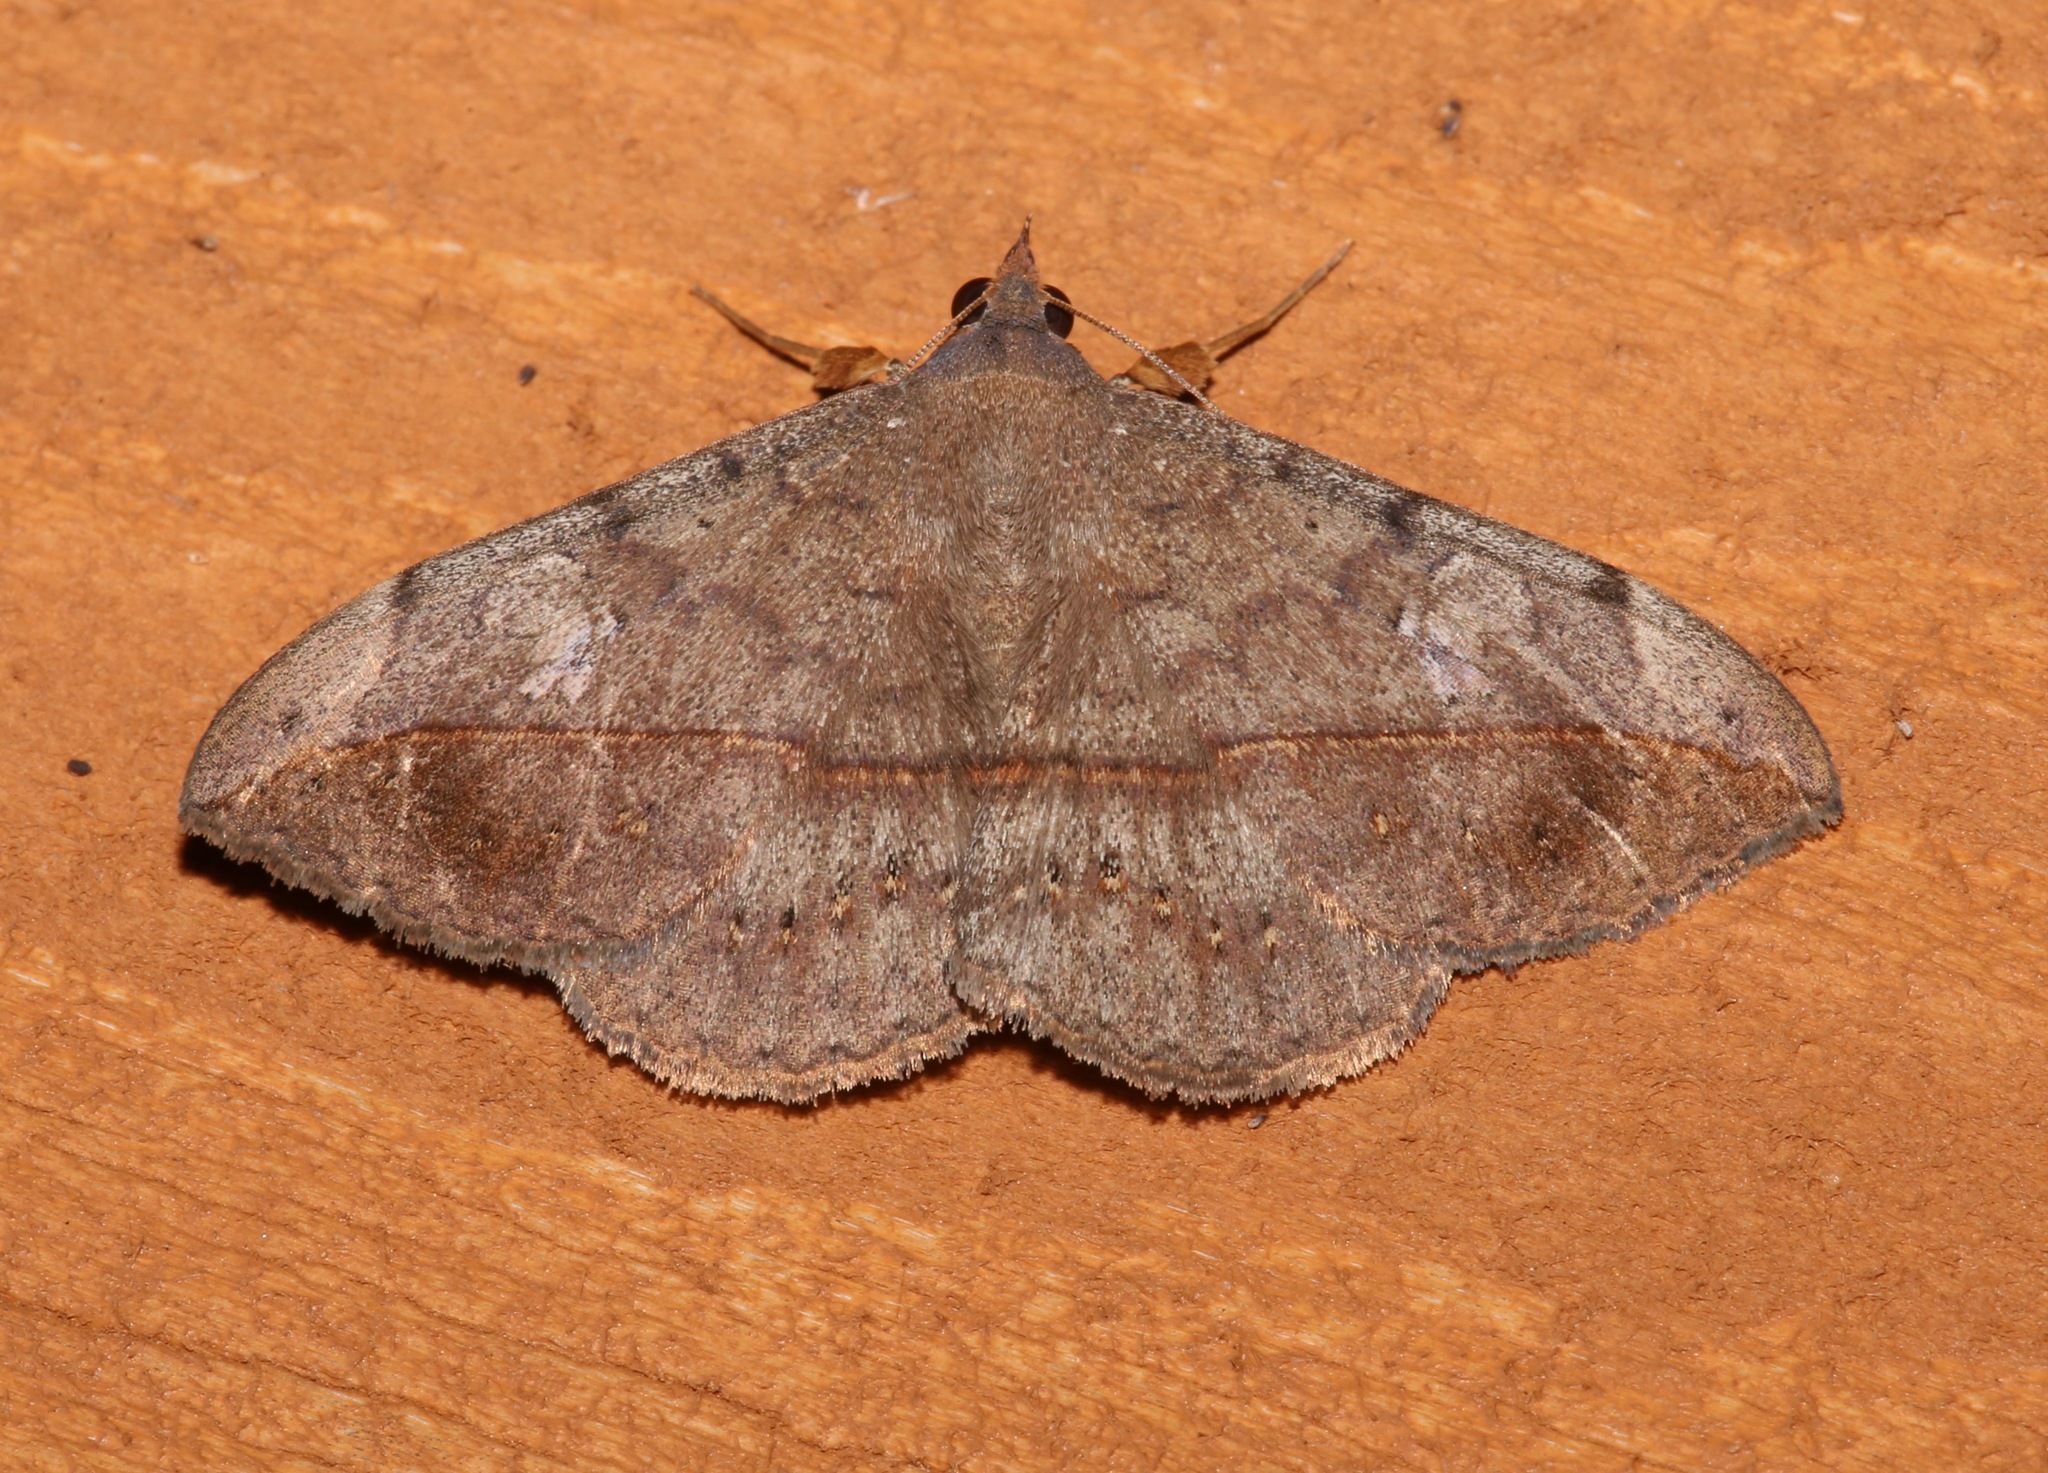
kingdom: Animalia
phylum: Arthropoda
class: Insecta
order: Lepidoptera
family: Erebidae
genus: Anticarsia
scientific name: Anticarsia gemmatalis
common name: Cutworm moth
